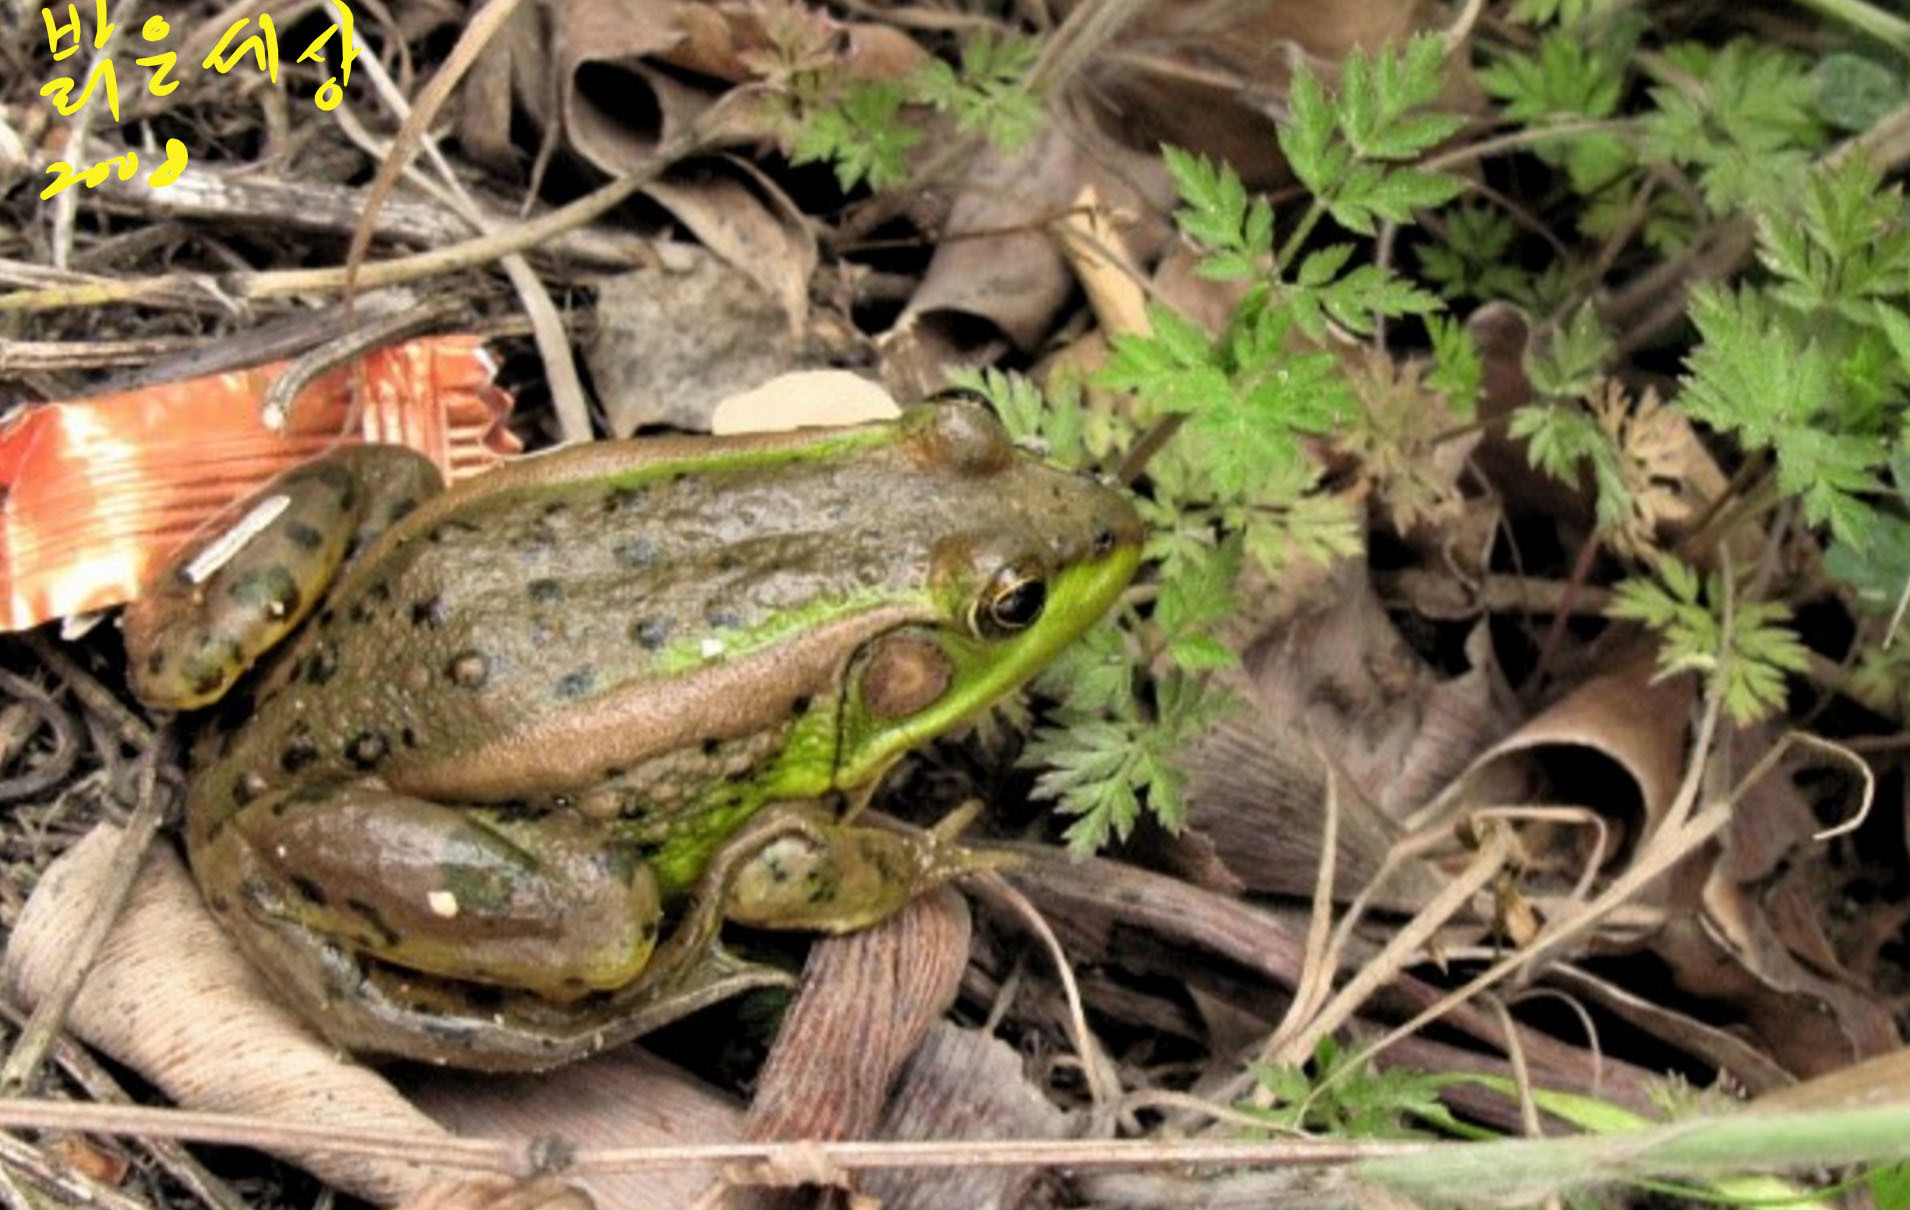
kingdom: Animalia
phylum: Chordata
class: Amphibia
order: Anura
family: Ranidae
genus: Pelophylax
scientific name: Pelophylax chosenicus
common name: Gold-spotted pond frog
